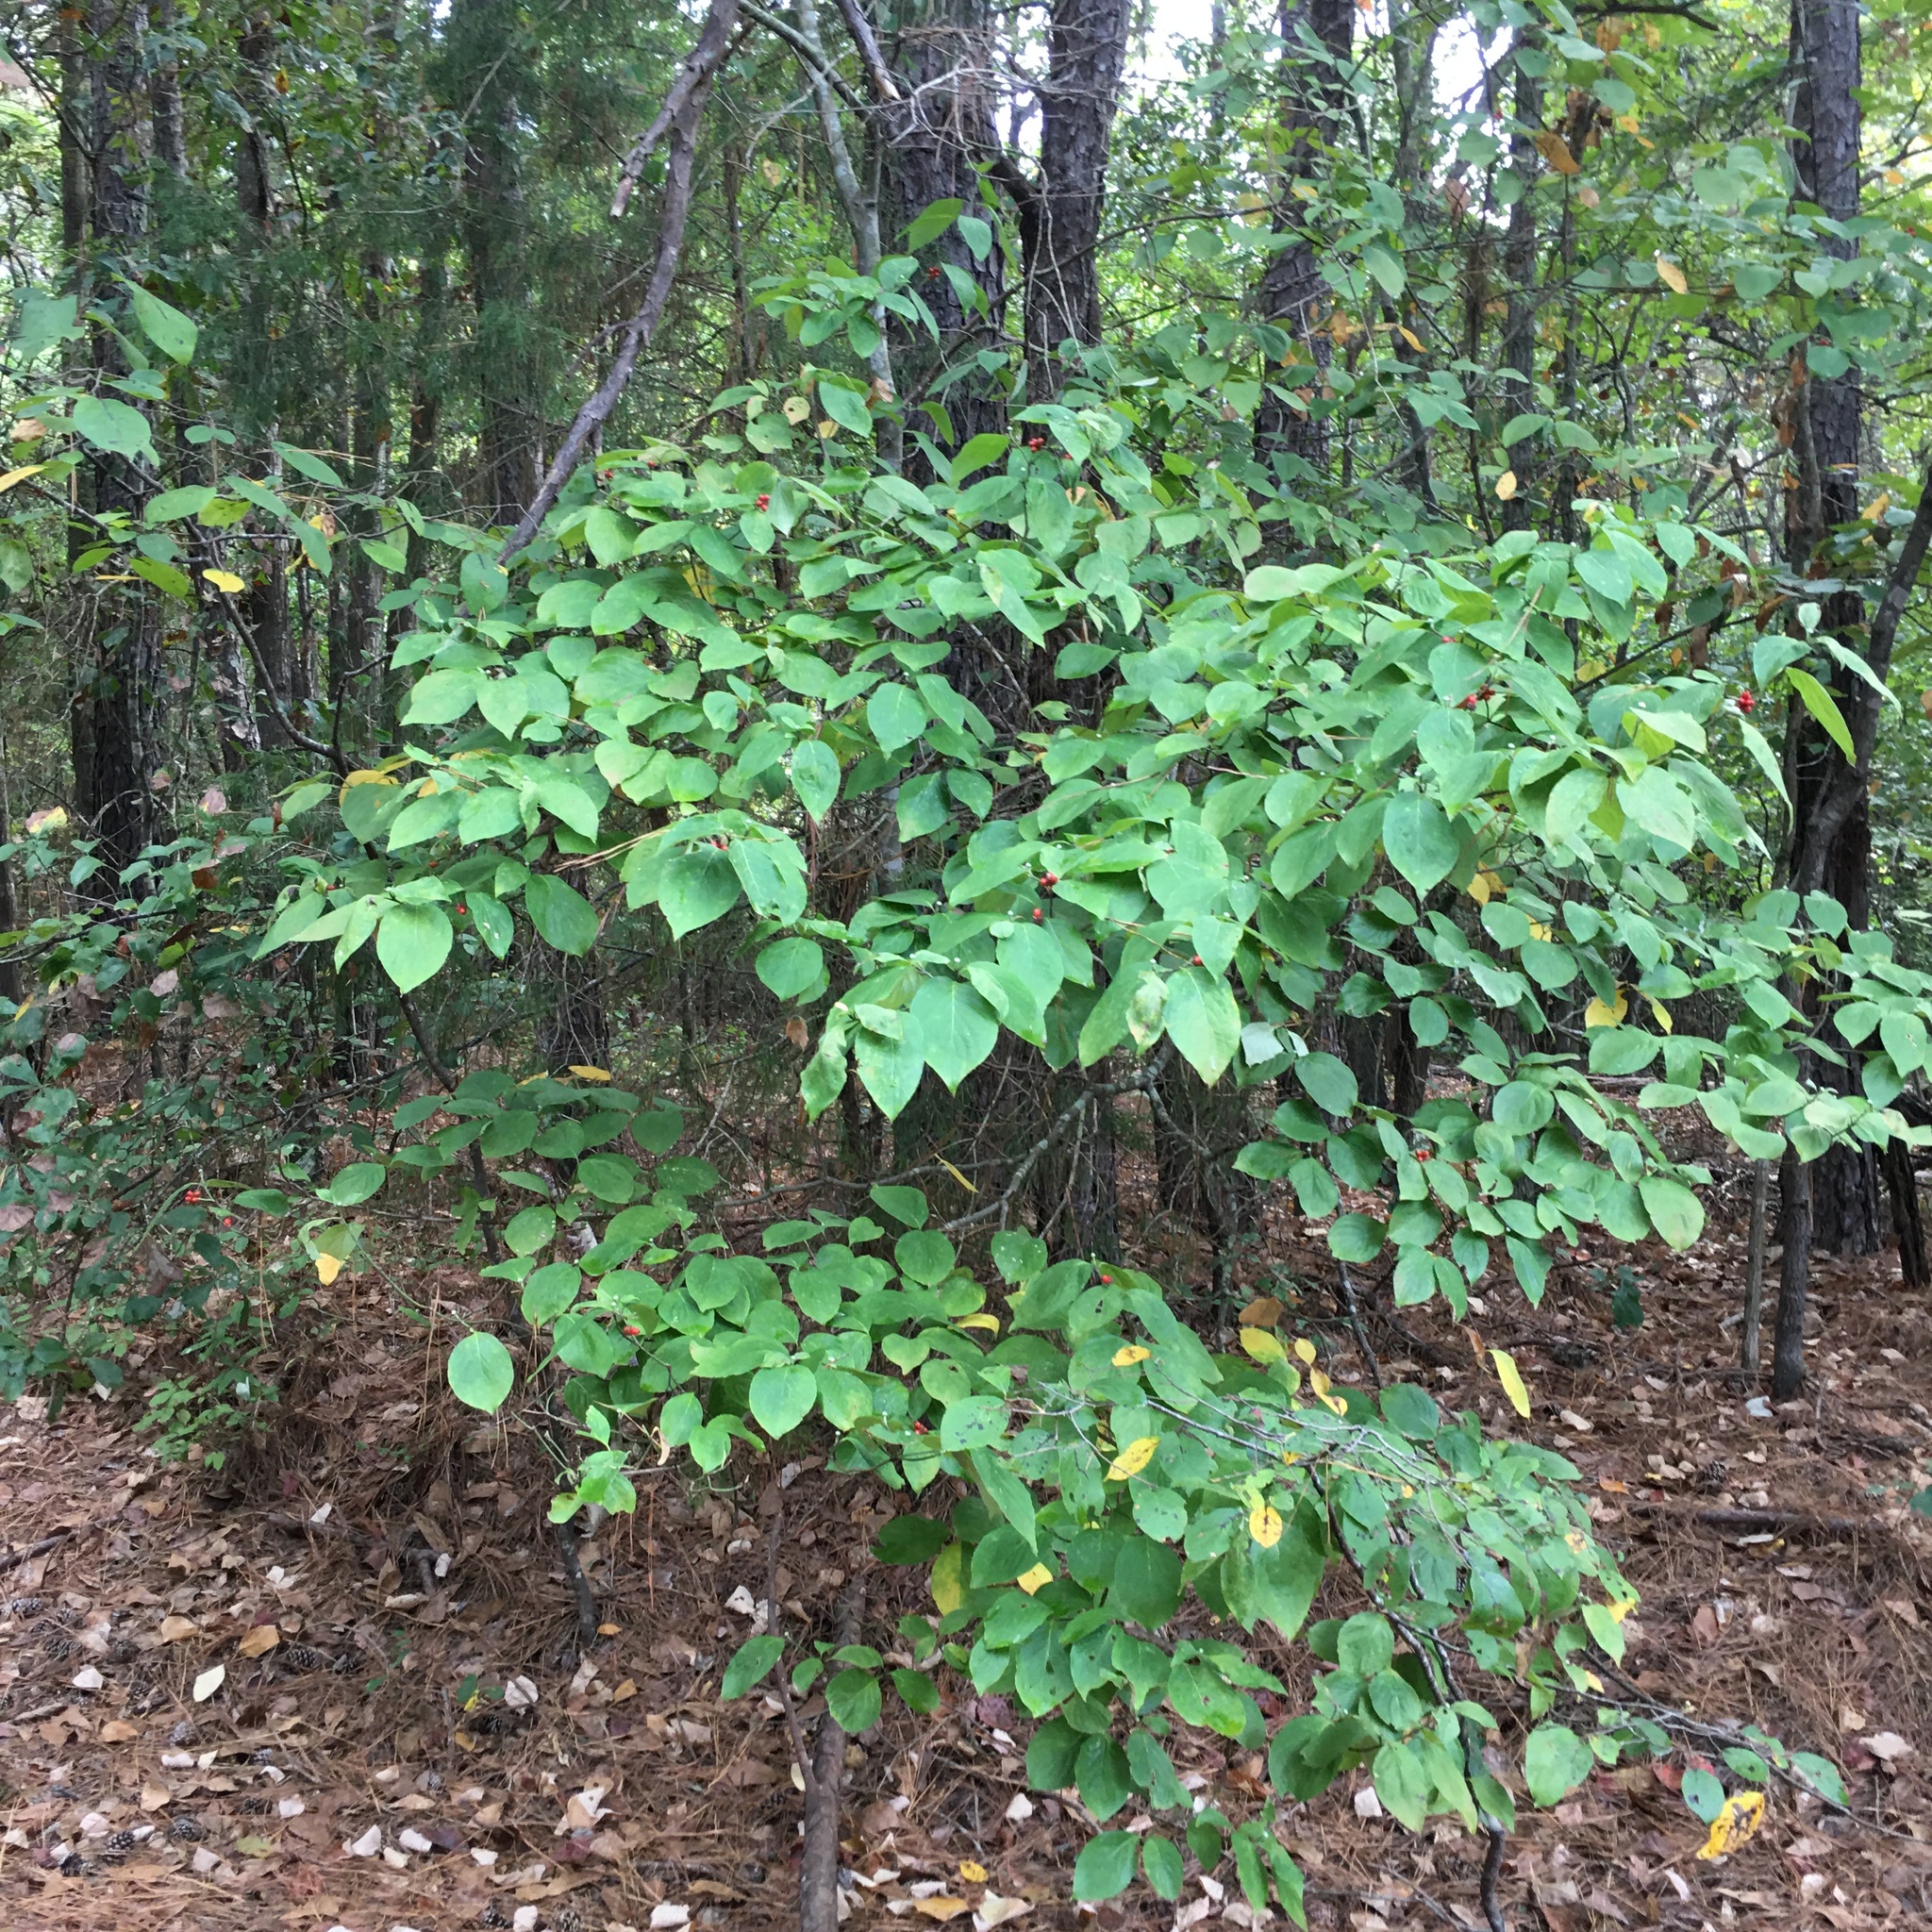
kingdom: Plantae
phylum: Tracheophyta
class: Magnoliopsida
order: Cornales
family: Cornaceae
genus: Cornus
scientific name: Cornus florida
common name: Flowering dogwood
